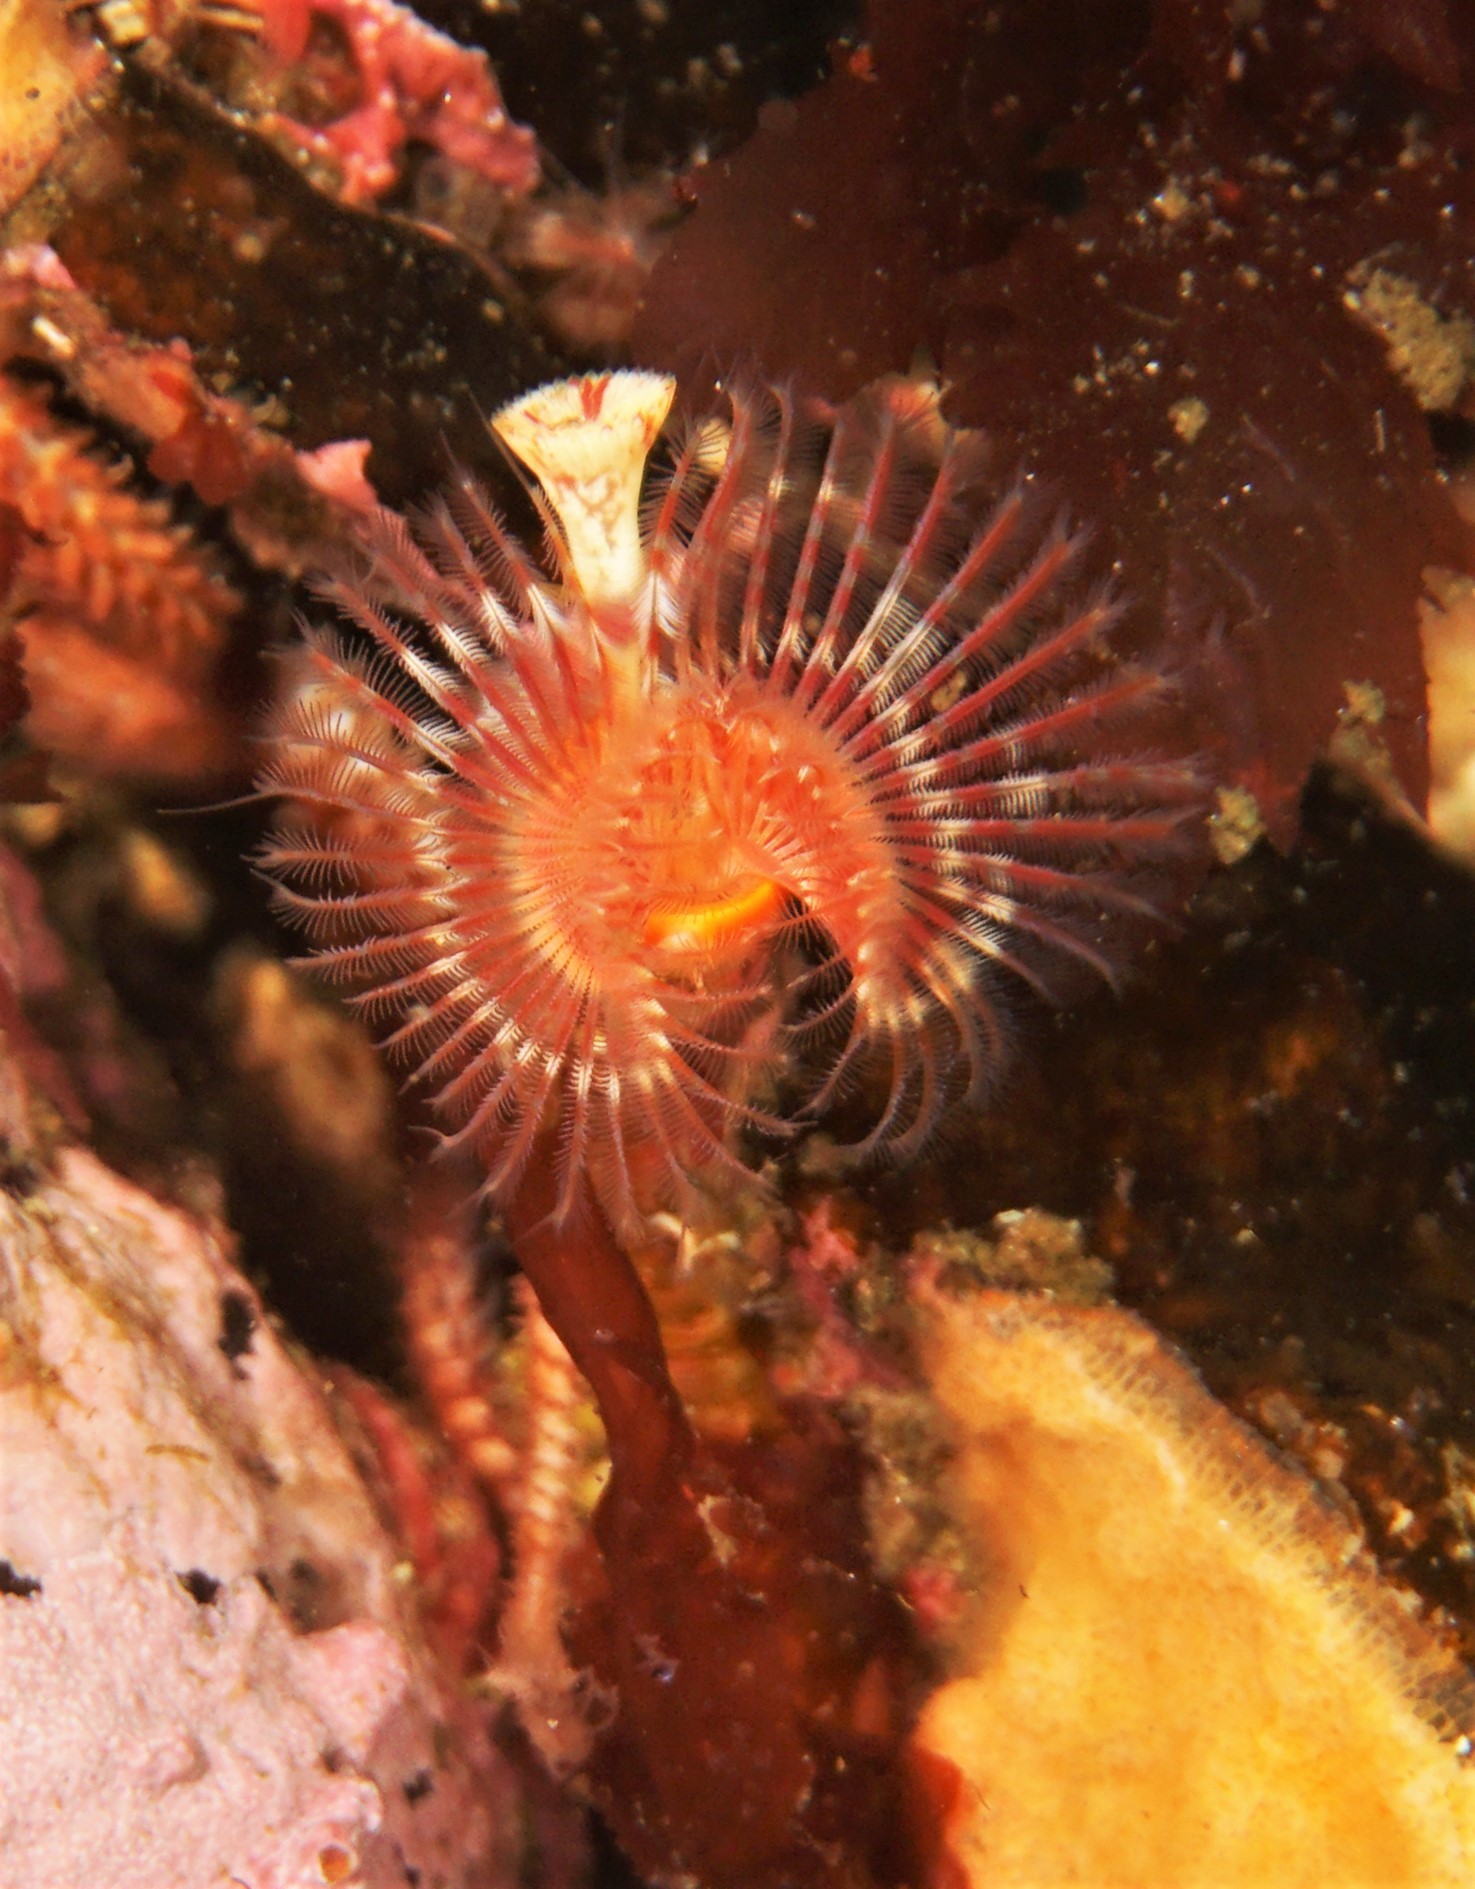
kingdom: Animalia
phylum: Annelida
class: Polychaeta
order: Sabellida
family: Serpulidae
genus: Serpula
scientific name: Serpula vermicularis
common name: Calcareous tubeworm
